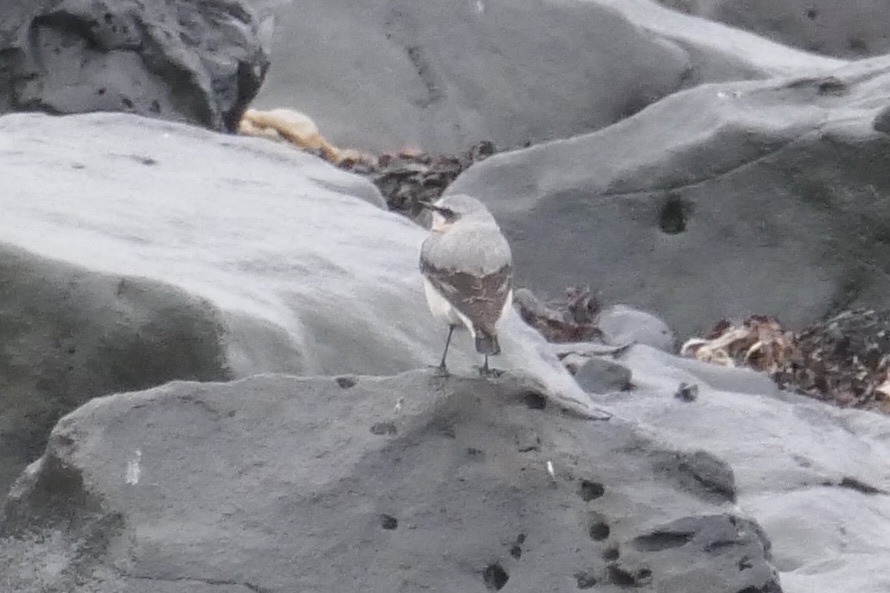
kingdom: Animalia
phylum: Chordata
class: Aves
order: Passeriformes
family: Muscicapidae
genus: Oenanthe
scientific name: Oenanthe oenanthe
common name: Northern wheatear
